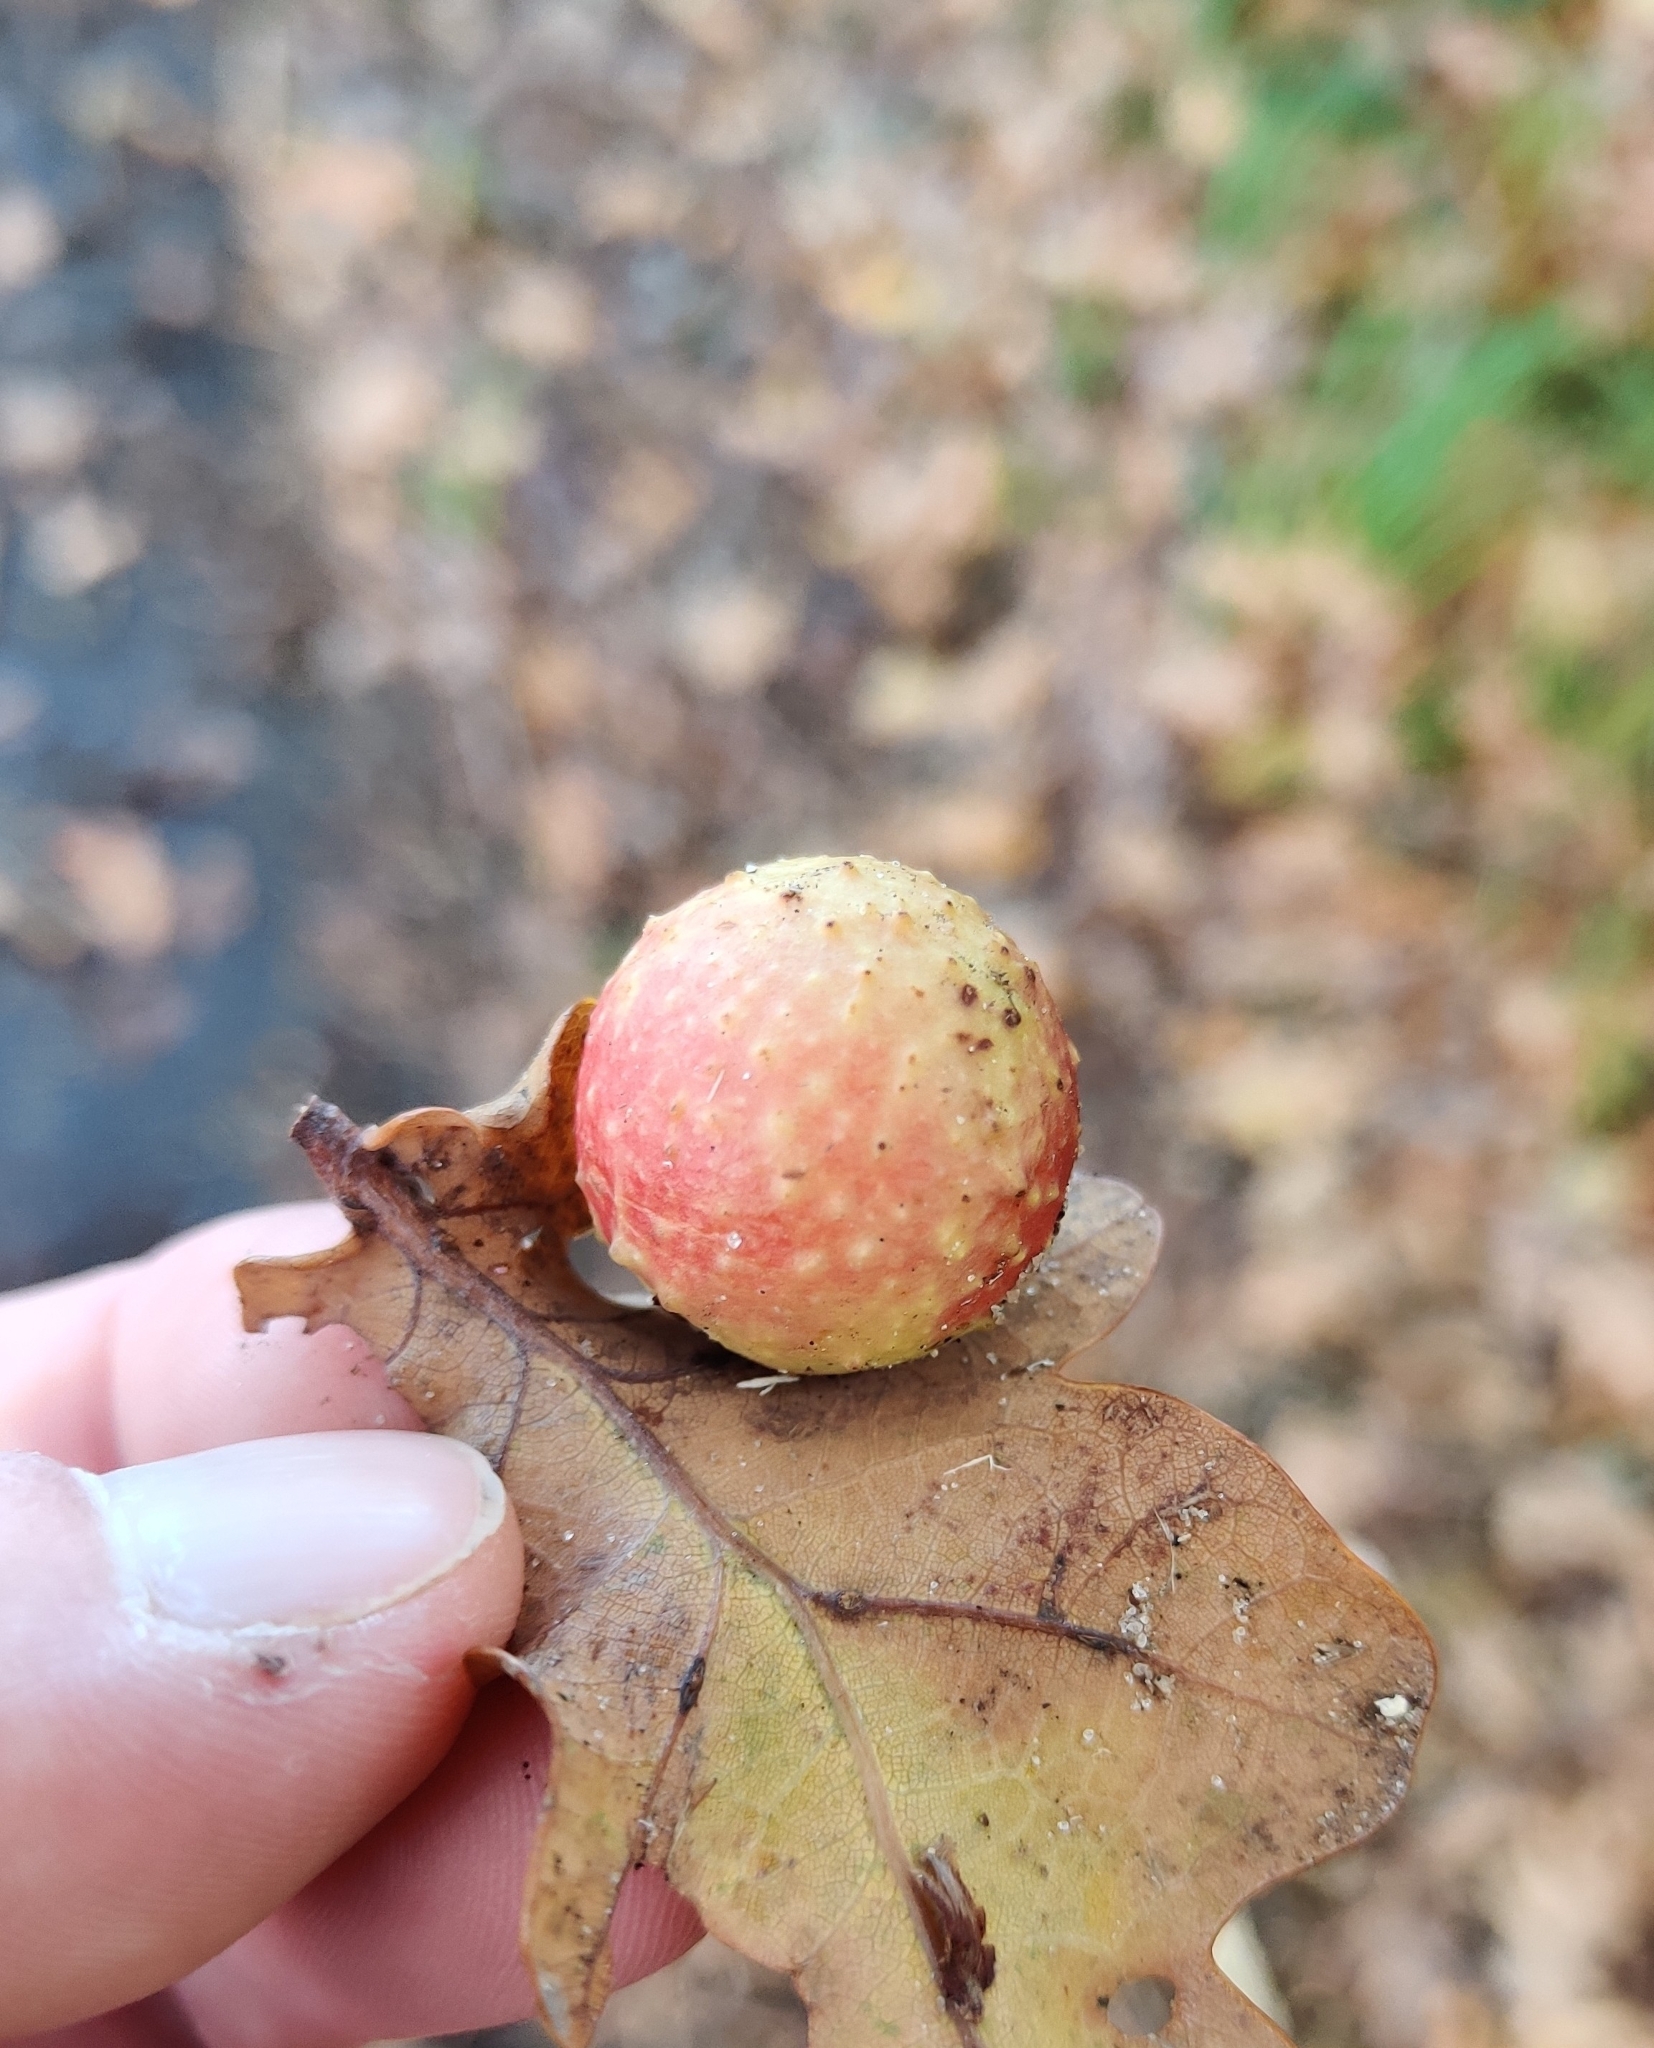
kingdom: Animalia
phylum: Arthropoda
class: Insecta
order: Hymenoptera
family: Cynipidae
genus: Cynips
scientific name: Cynips quercusfolii
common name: Cherry gall
